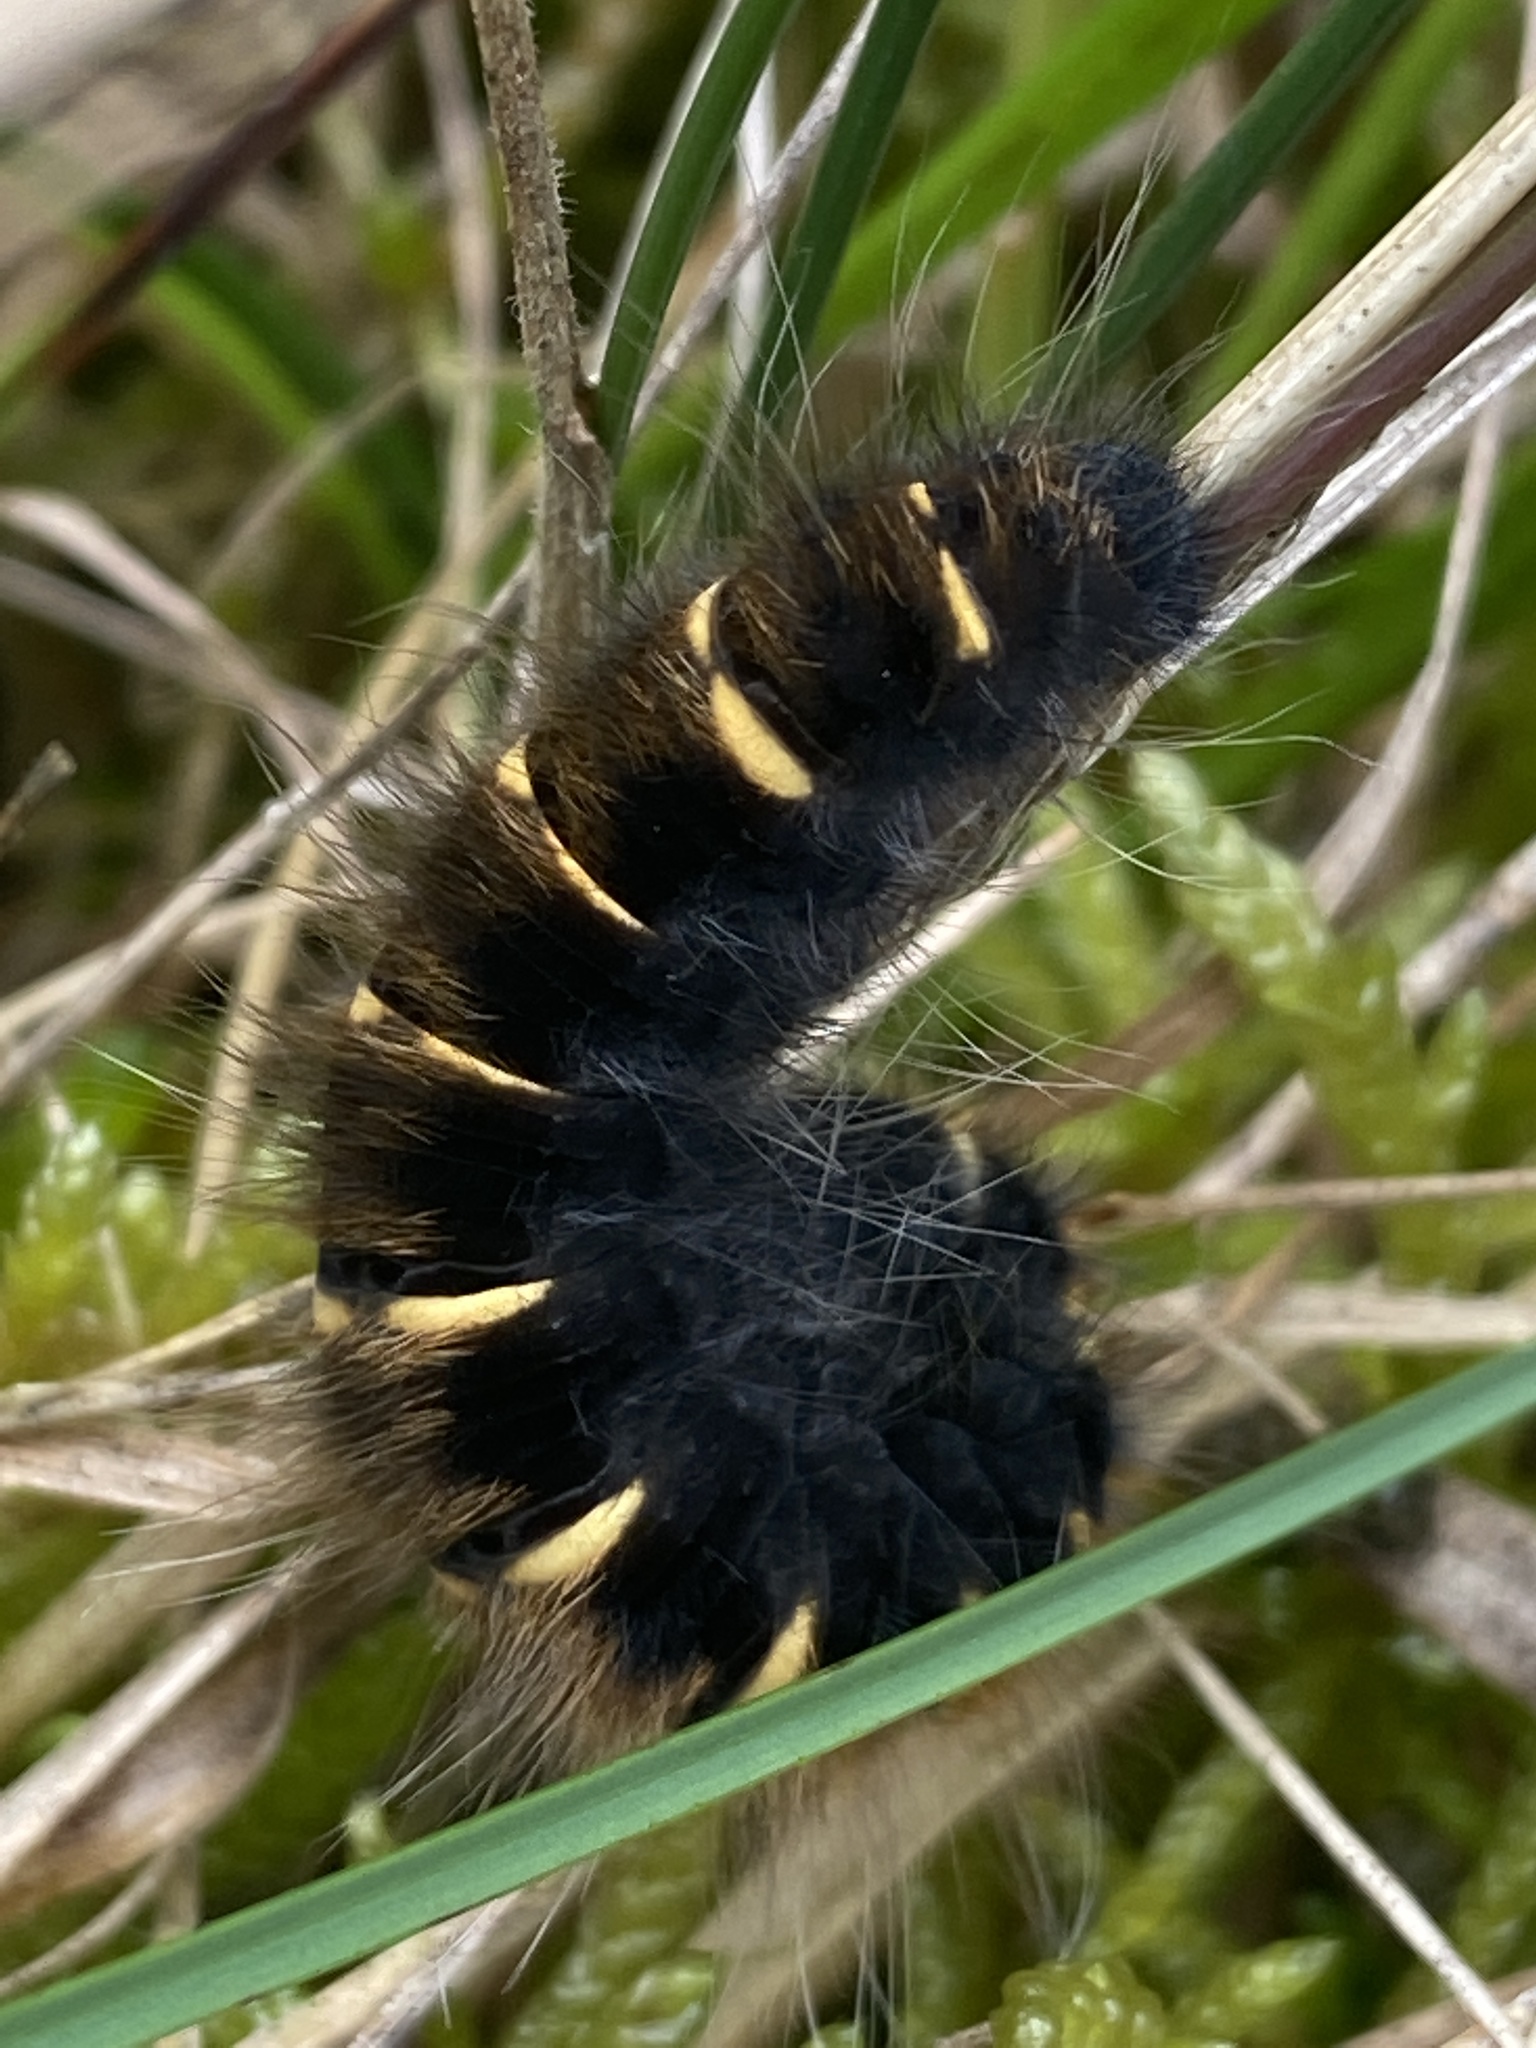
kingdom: Animalia
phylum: Arthropoda
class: Insecta
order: Lepidoptera
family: Lasiocampidae
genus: Macrothylacia
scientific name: Macrothylacia rubi
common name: Fox moth
